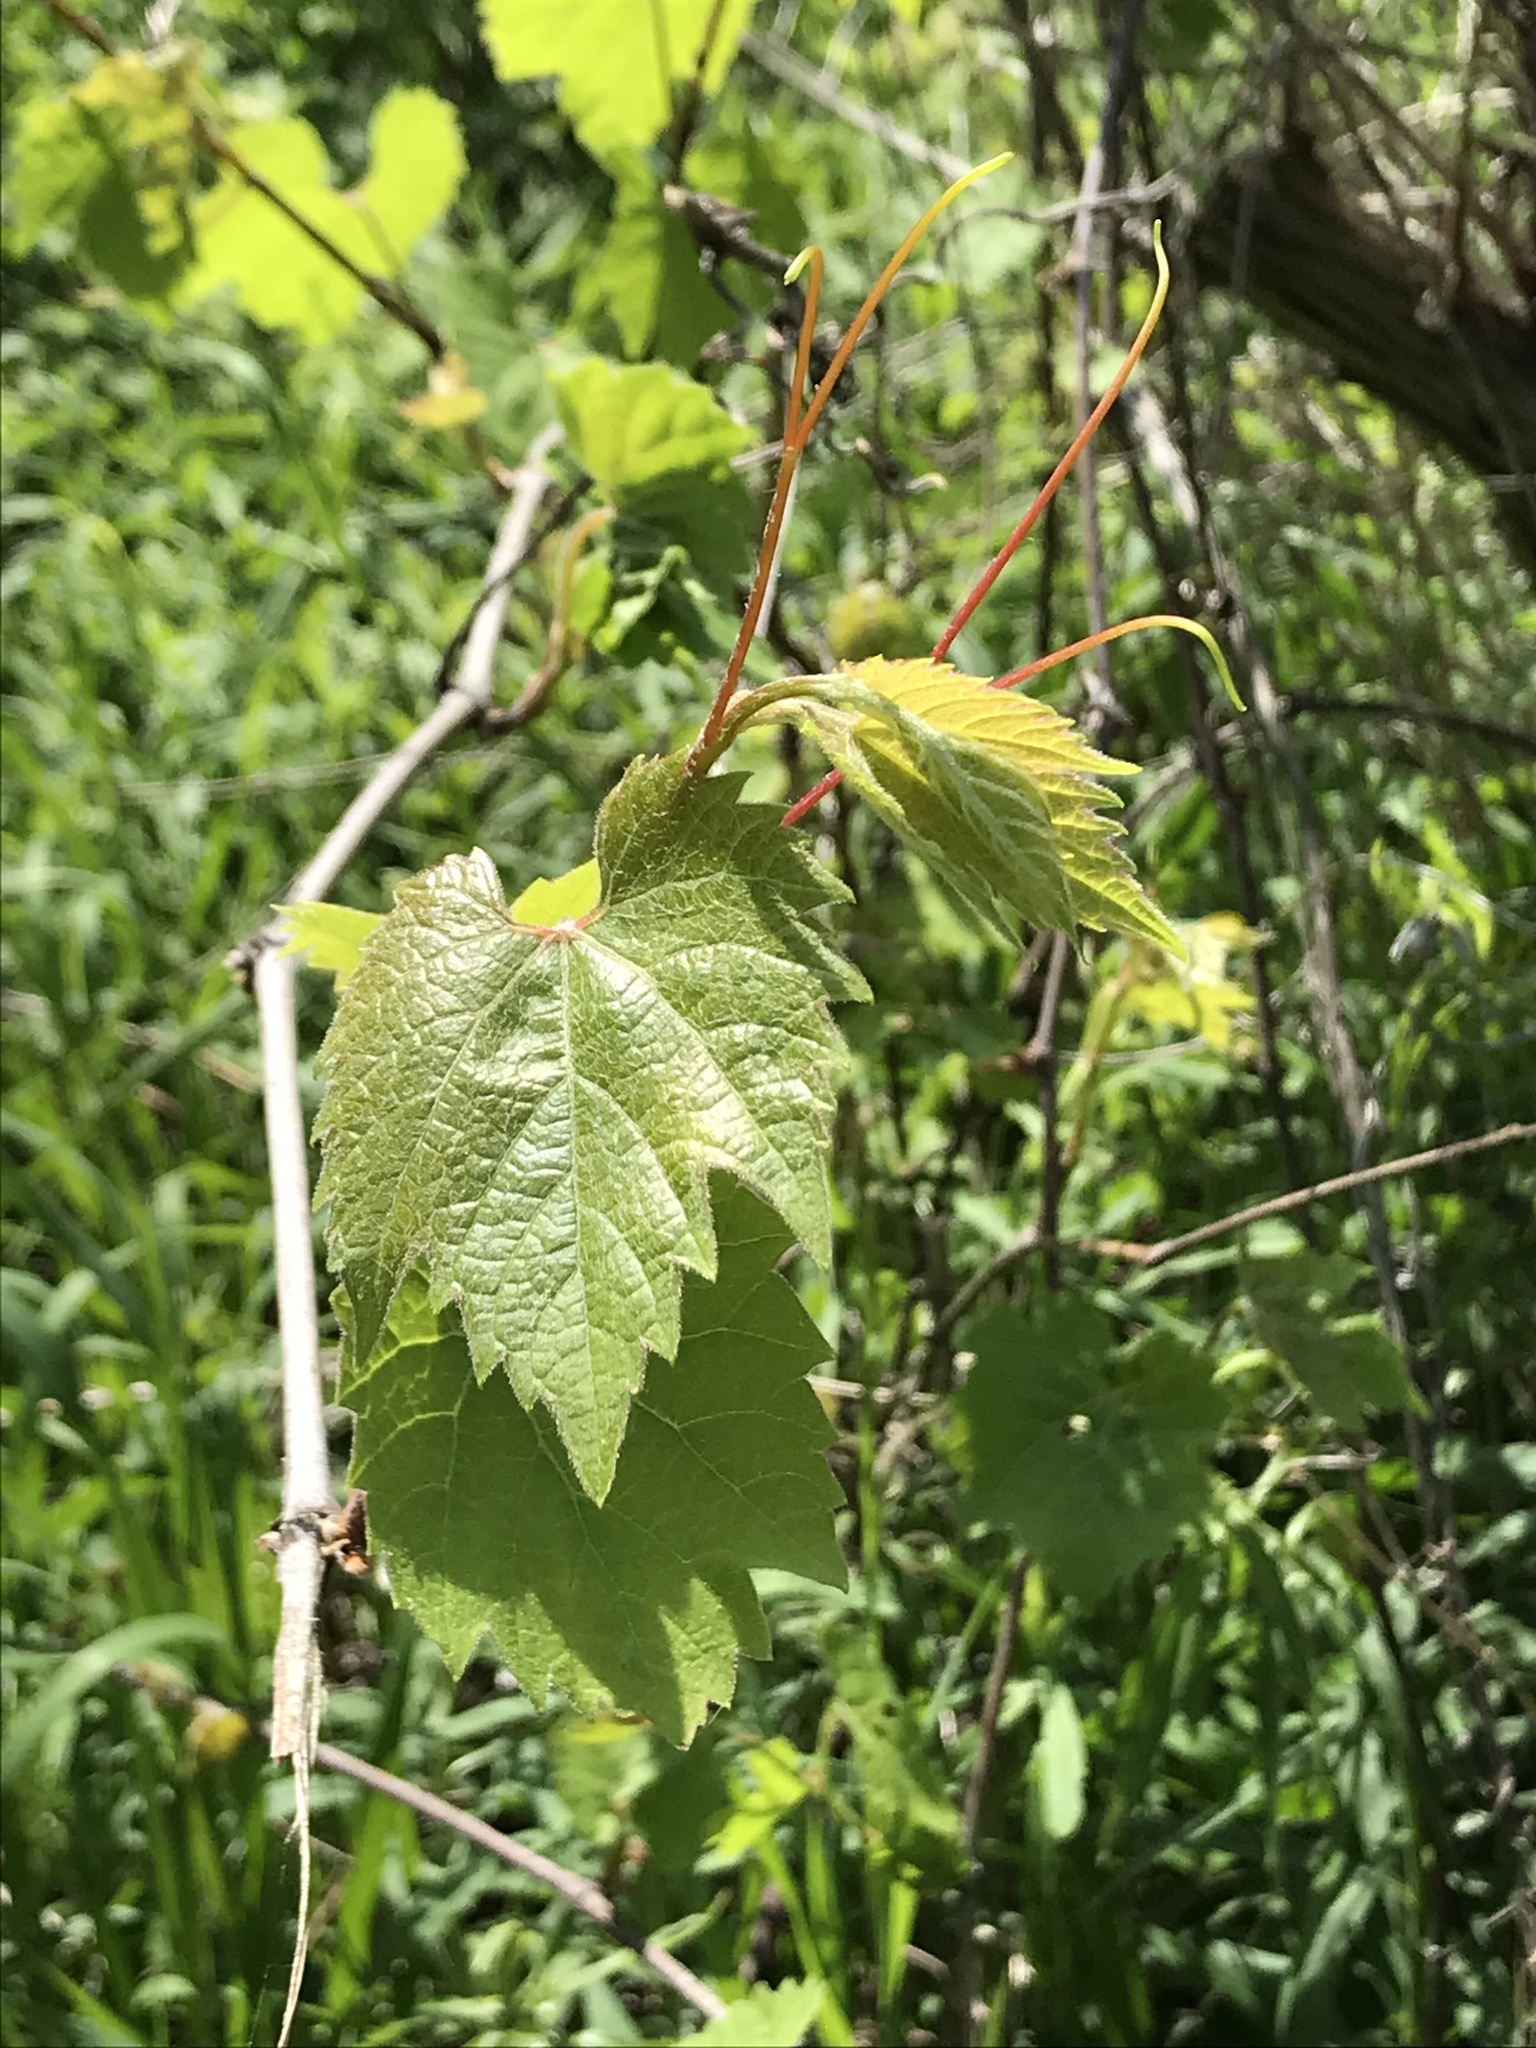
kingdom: Plantae
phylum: Tracheophyta
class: Magnoliopsida
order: Vitales
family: Vitaceae
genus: Vitis
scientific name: Vitis riparia
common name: Frost grape
